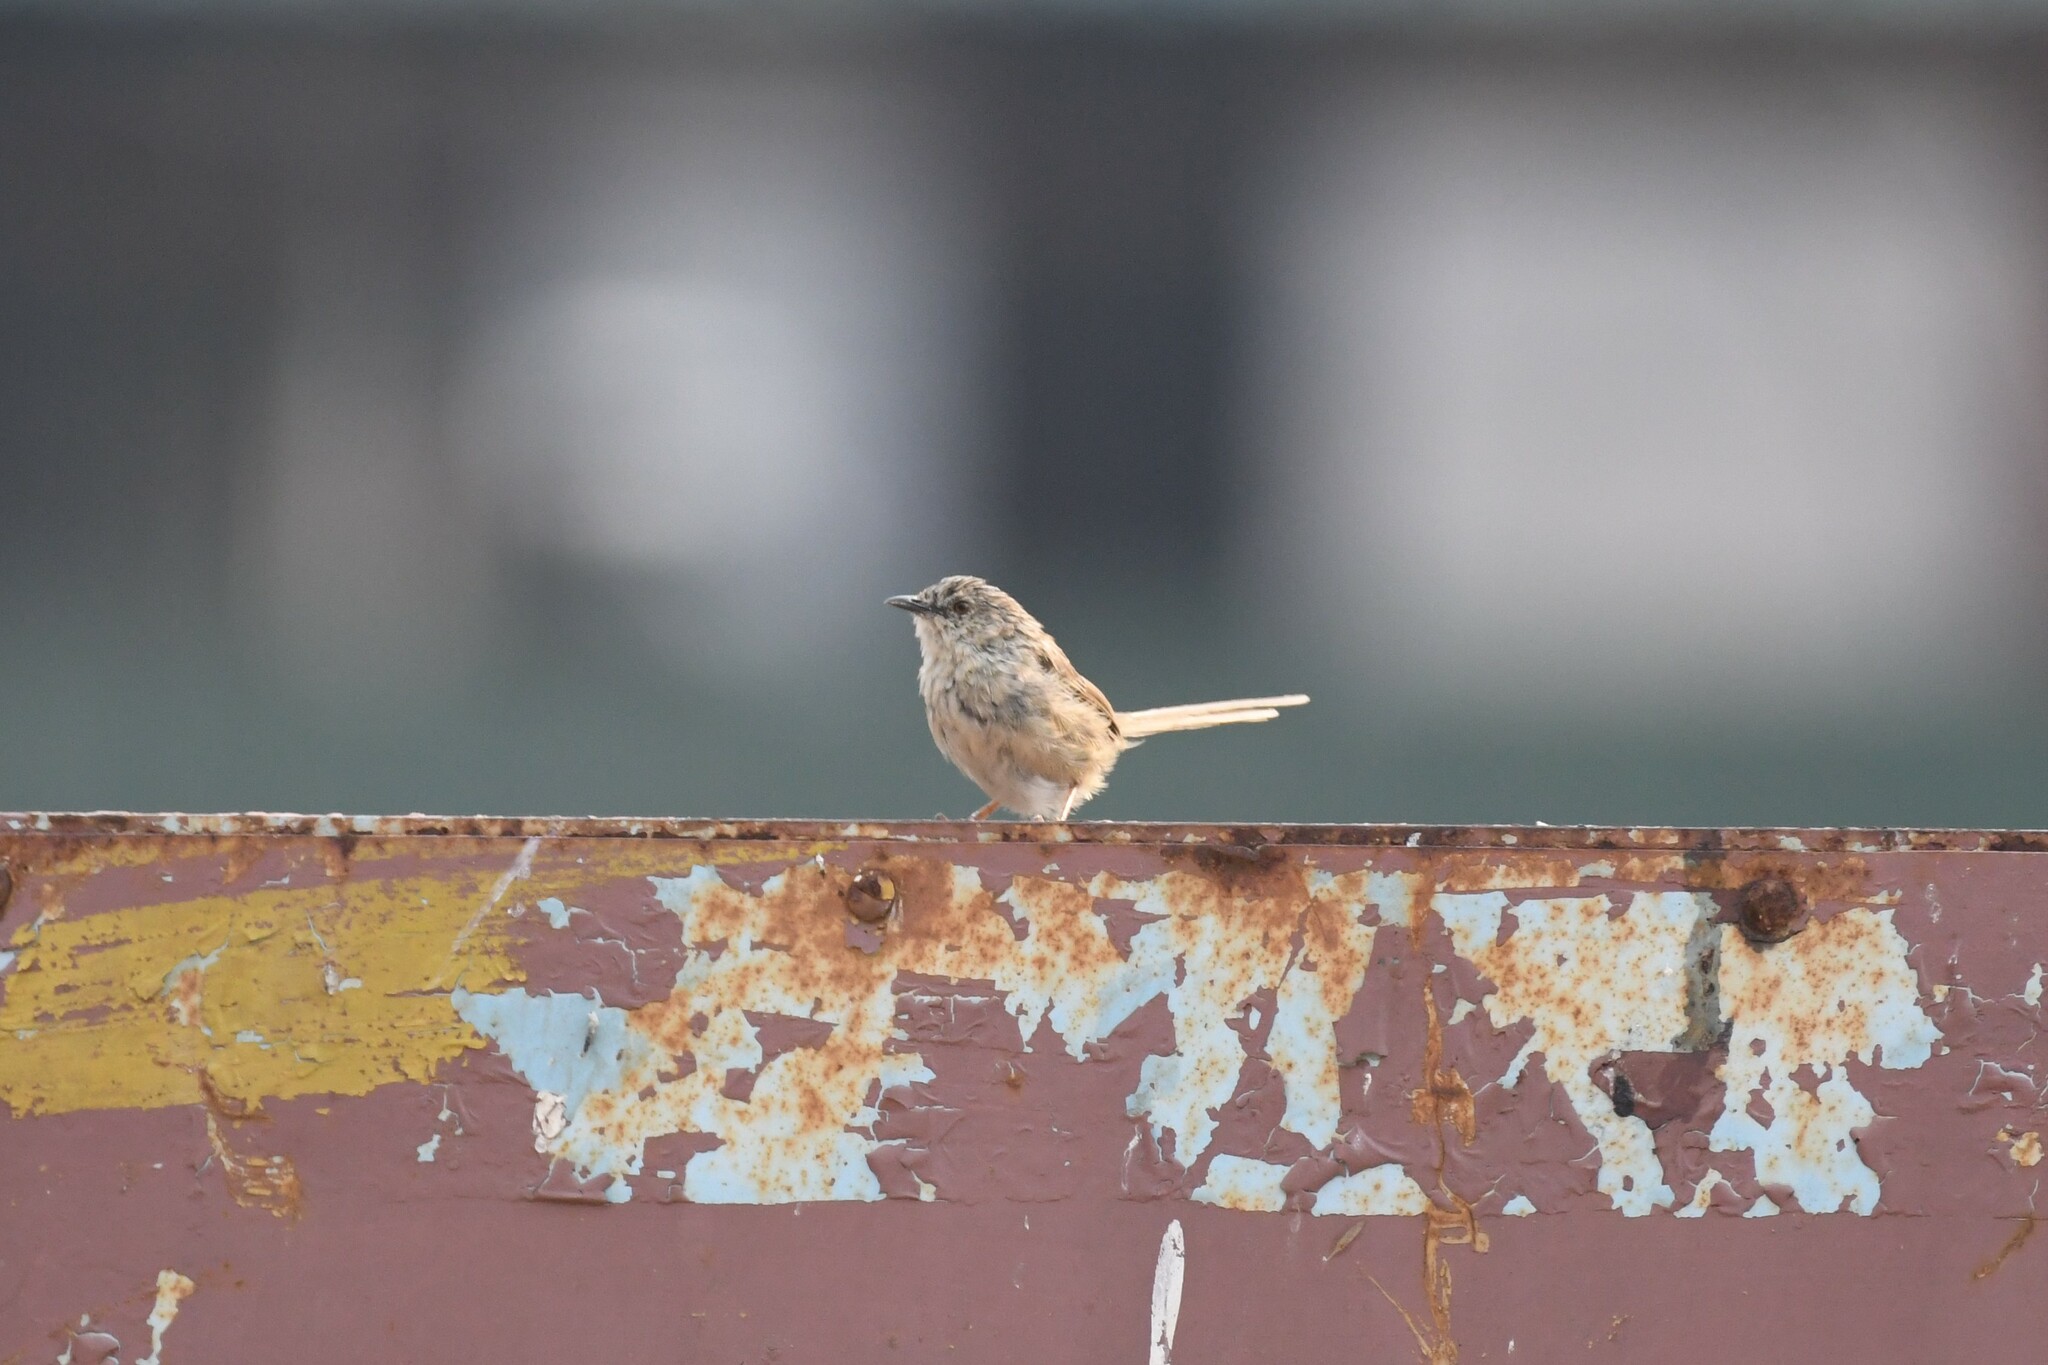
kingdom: Animalia
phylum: Chordata
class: Aves
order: Passeriformes
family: Cisticolidae
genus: Prinia
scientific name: Prinia crinigera
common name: Striated prinia
